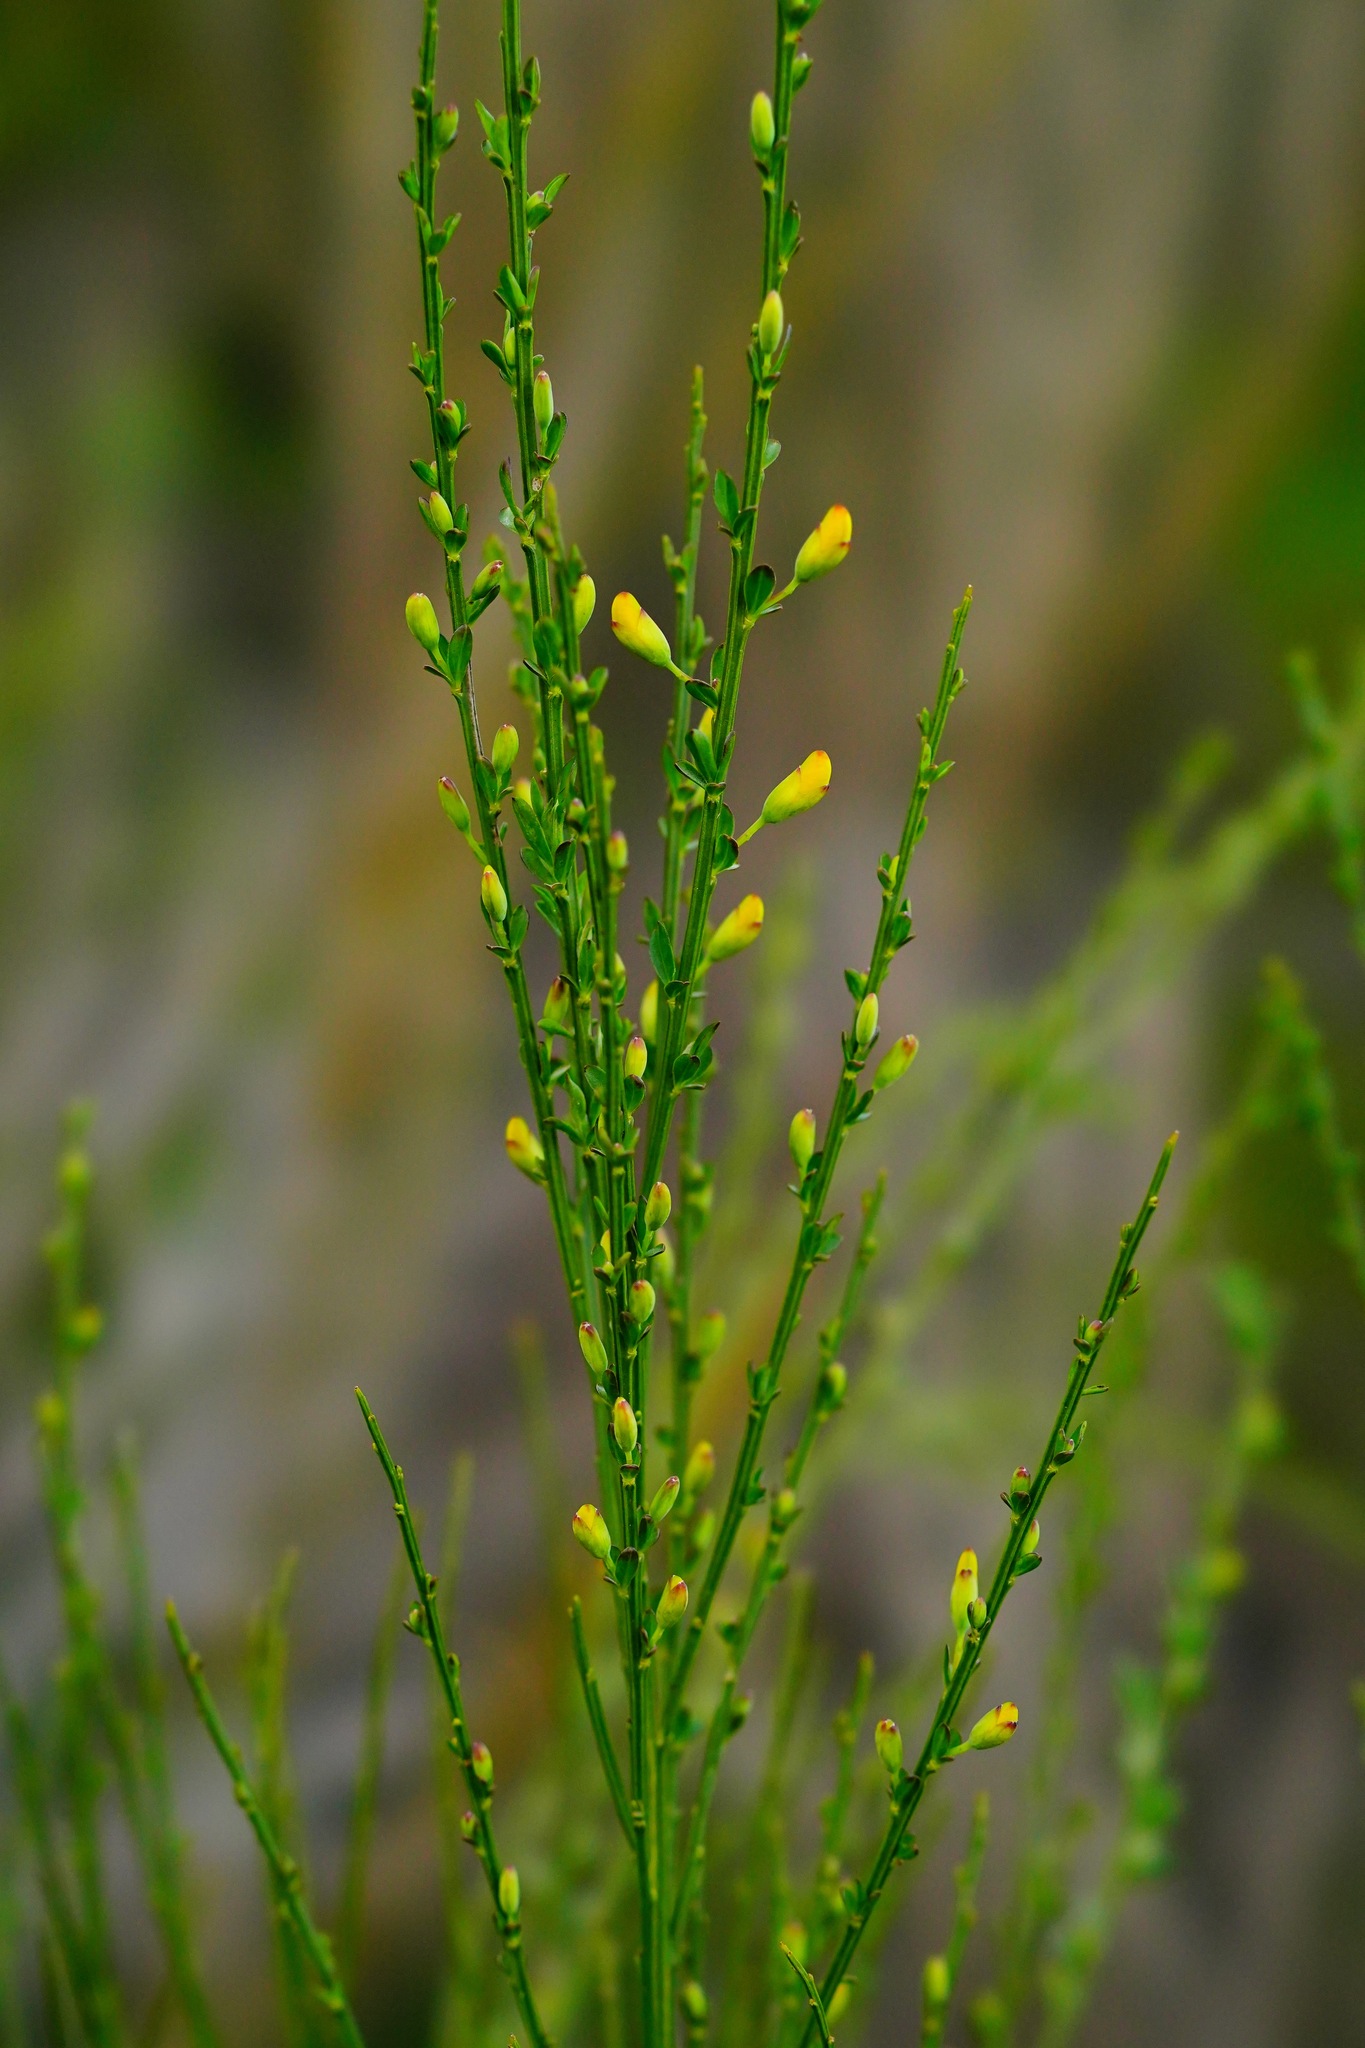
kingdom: Plantae
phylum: Tracheophyta
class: Magnoliopsida
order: Fabales
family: Fabaceae
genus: Cytisus
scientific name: Cytisus scoparius
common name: Scotch broom
